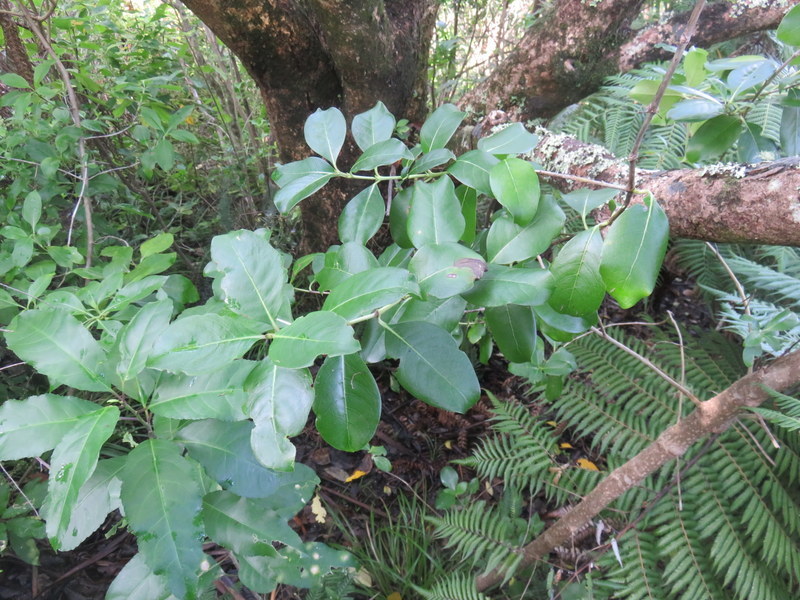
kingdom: Plantae
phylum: Tracheophyta
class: Magnoliopsida
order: Gentianales
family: Rubiaceae
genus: Coprosma
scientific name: Coprosma robusta
